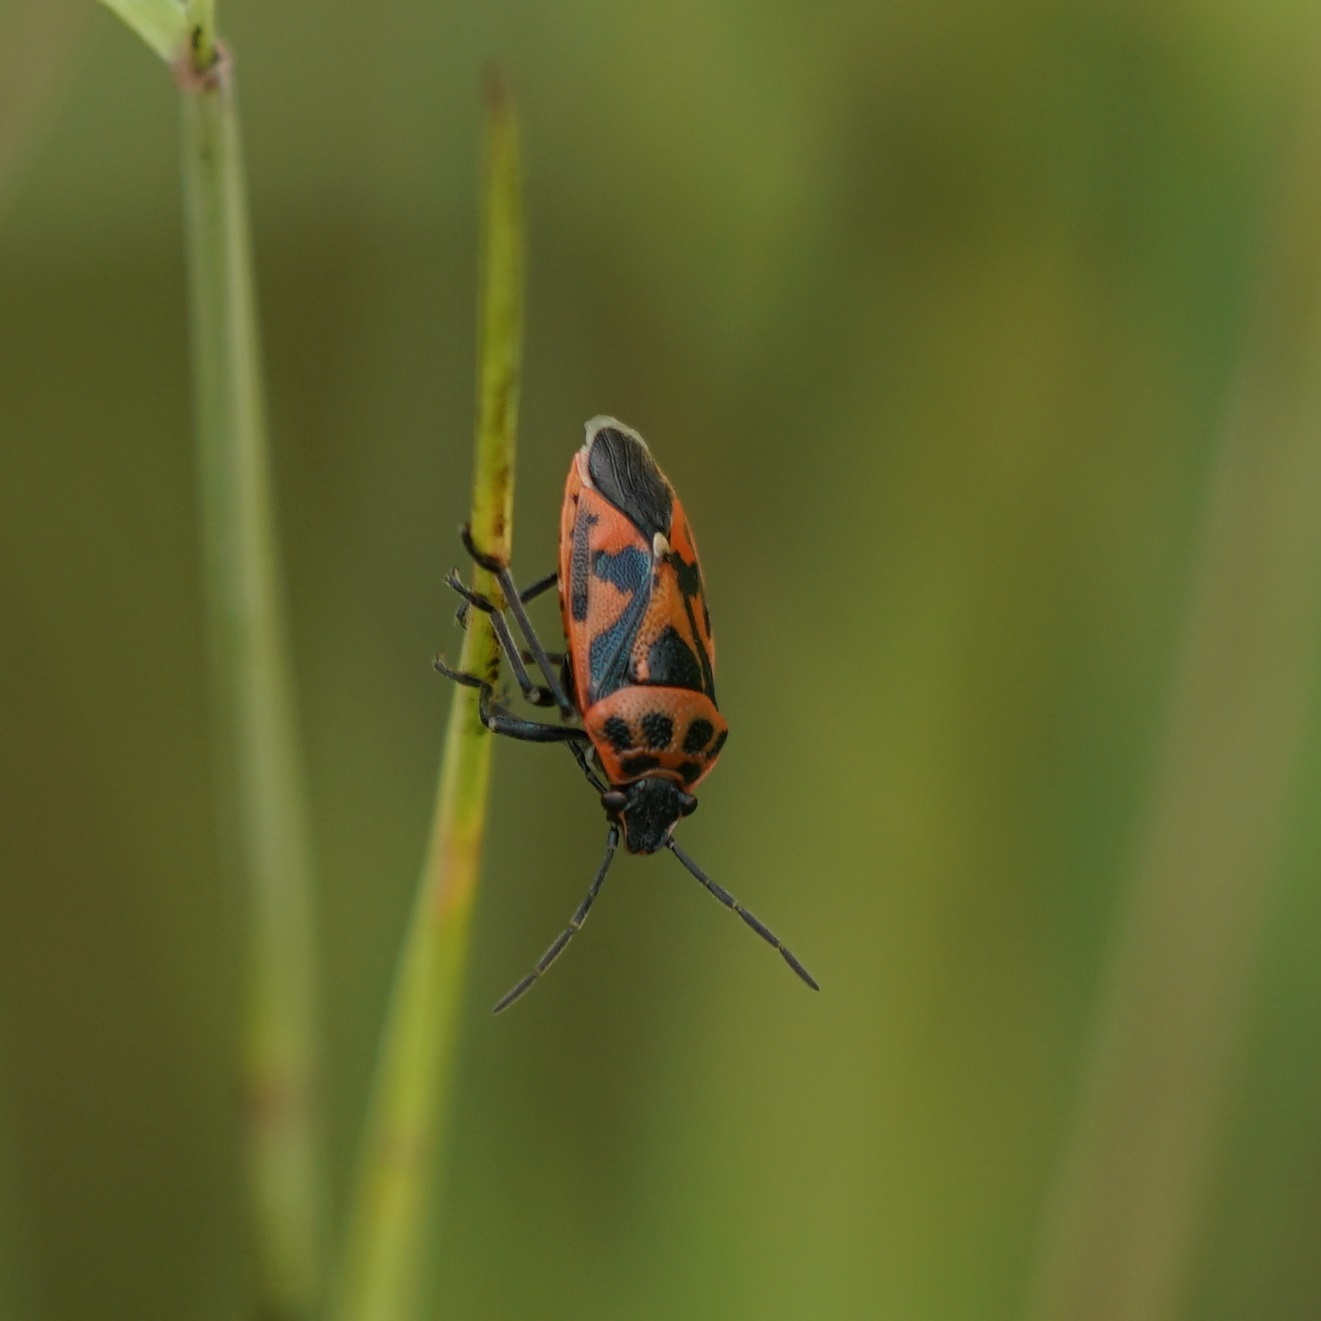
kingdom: Animalia
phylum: Arthropoda
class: Insecta
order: Hemiptera
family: Pentatomidae
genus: Eurydema
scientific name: Eurydema ornata
